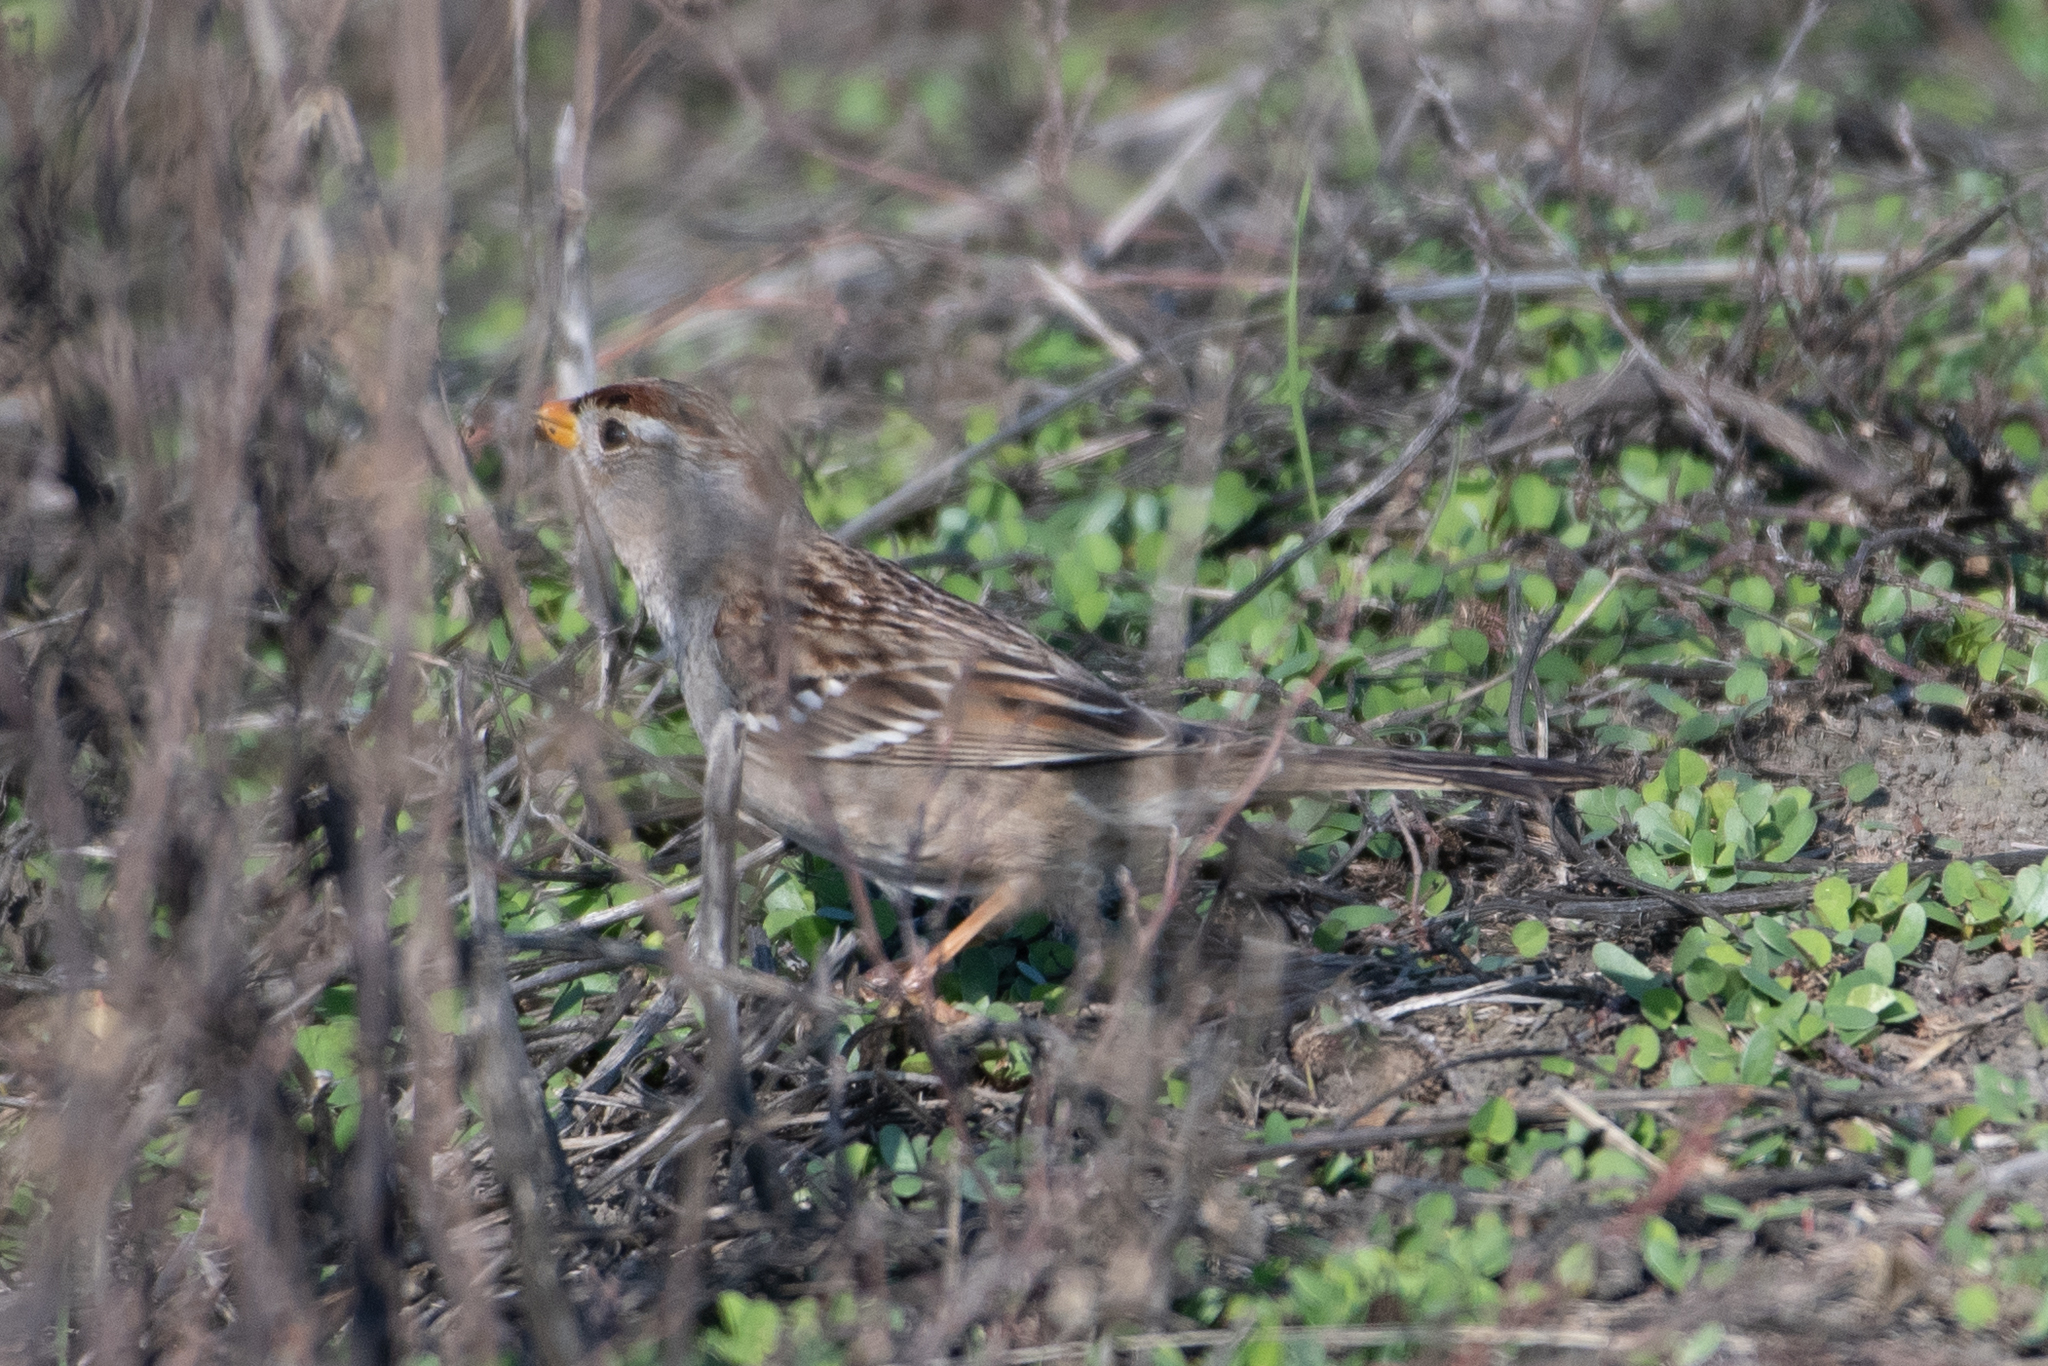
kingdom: Animalia
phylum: Chordata
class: Aves
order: Passeriformes
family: Passerellidae
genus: Zonotrichia
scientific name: Zonotrichia leucophrys
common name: White-crowned sparrow
